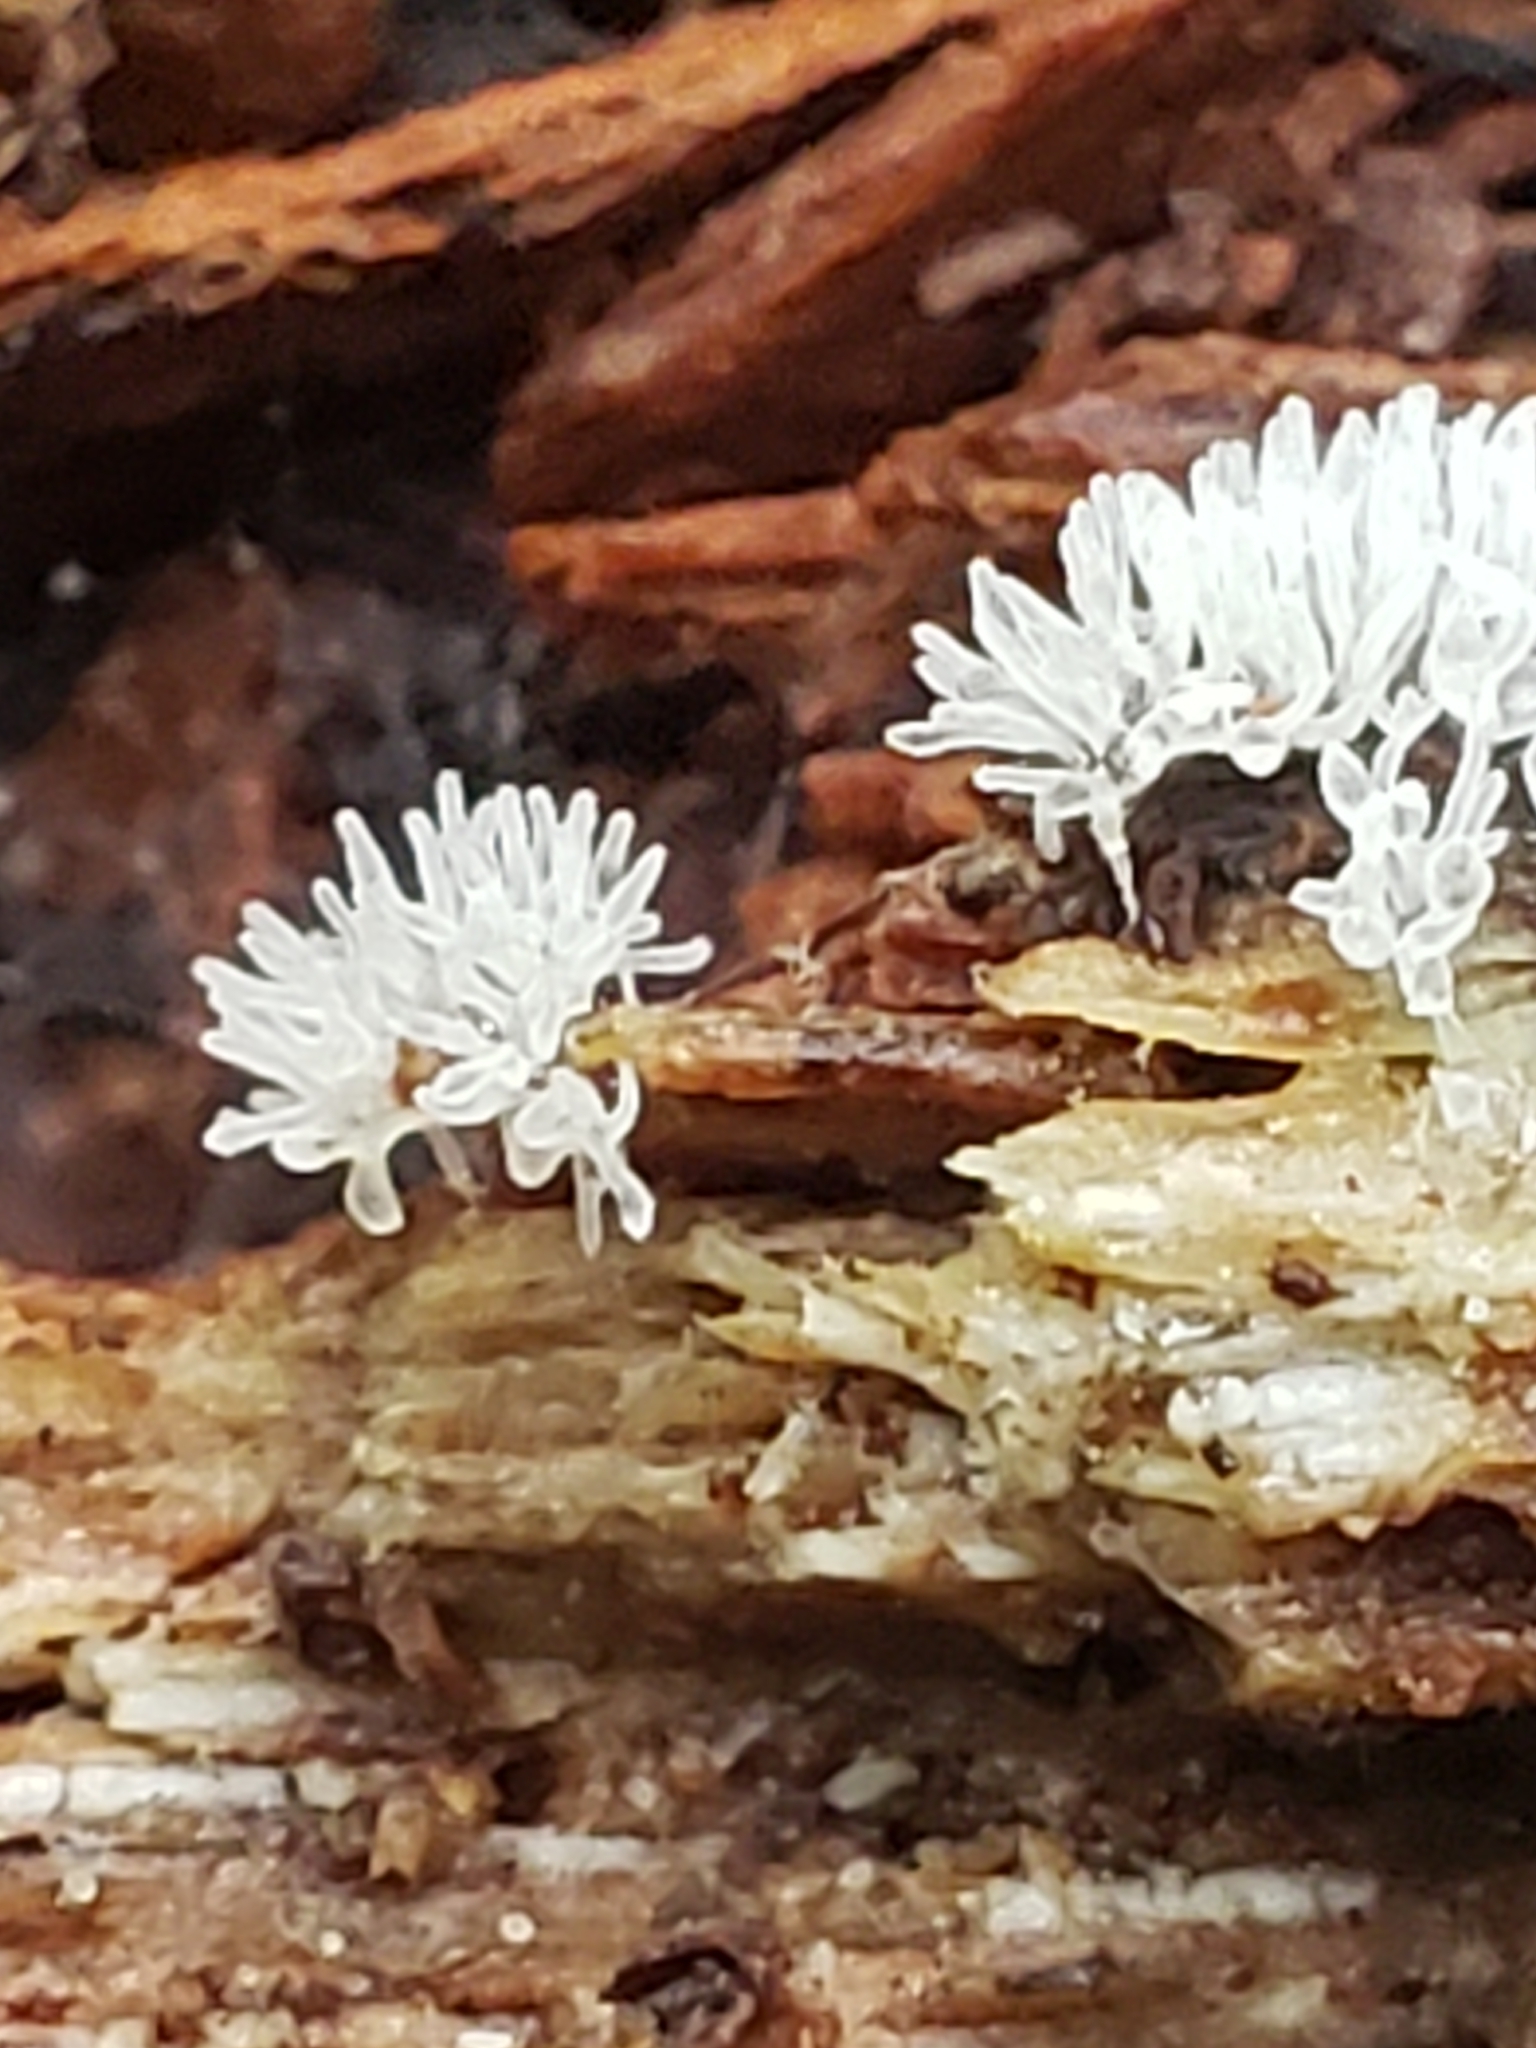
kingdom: Protozoa
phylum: Mycetozoa
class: Protosteliomycetes
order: Ceratiomyxales
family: Ceratiomyxaceae
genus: Ceratiomyxa
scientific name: Ceratiomyxa fruticulosa
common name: Honeycomb coral slime mold
